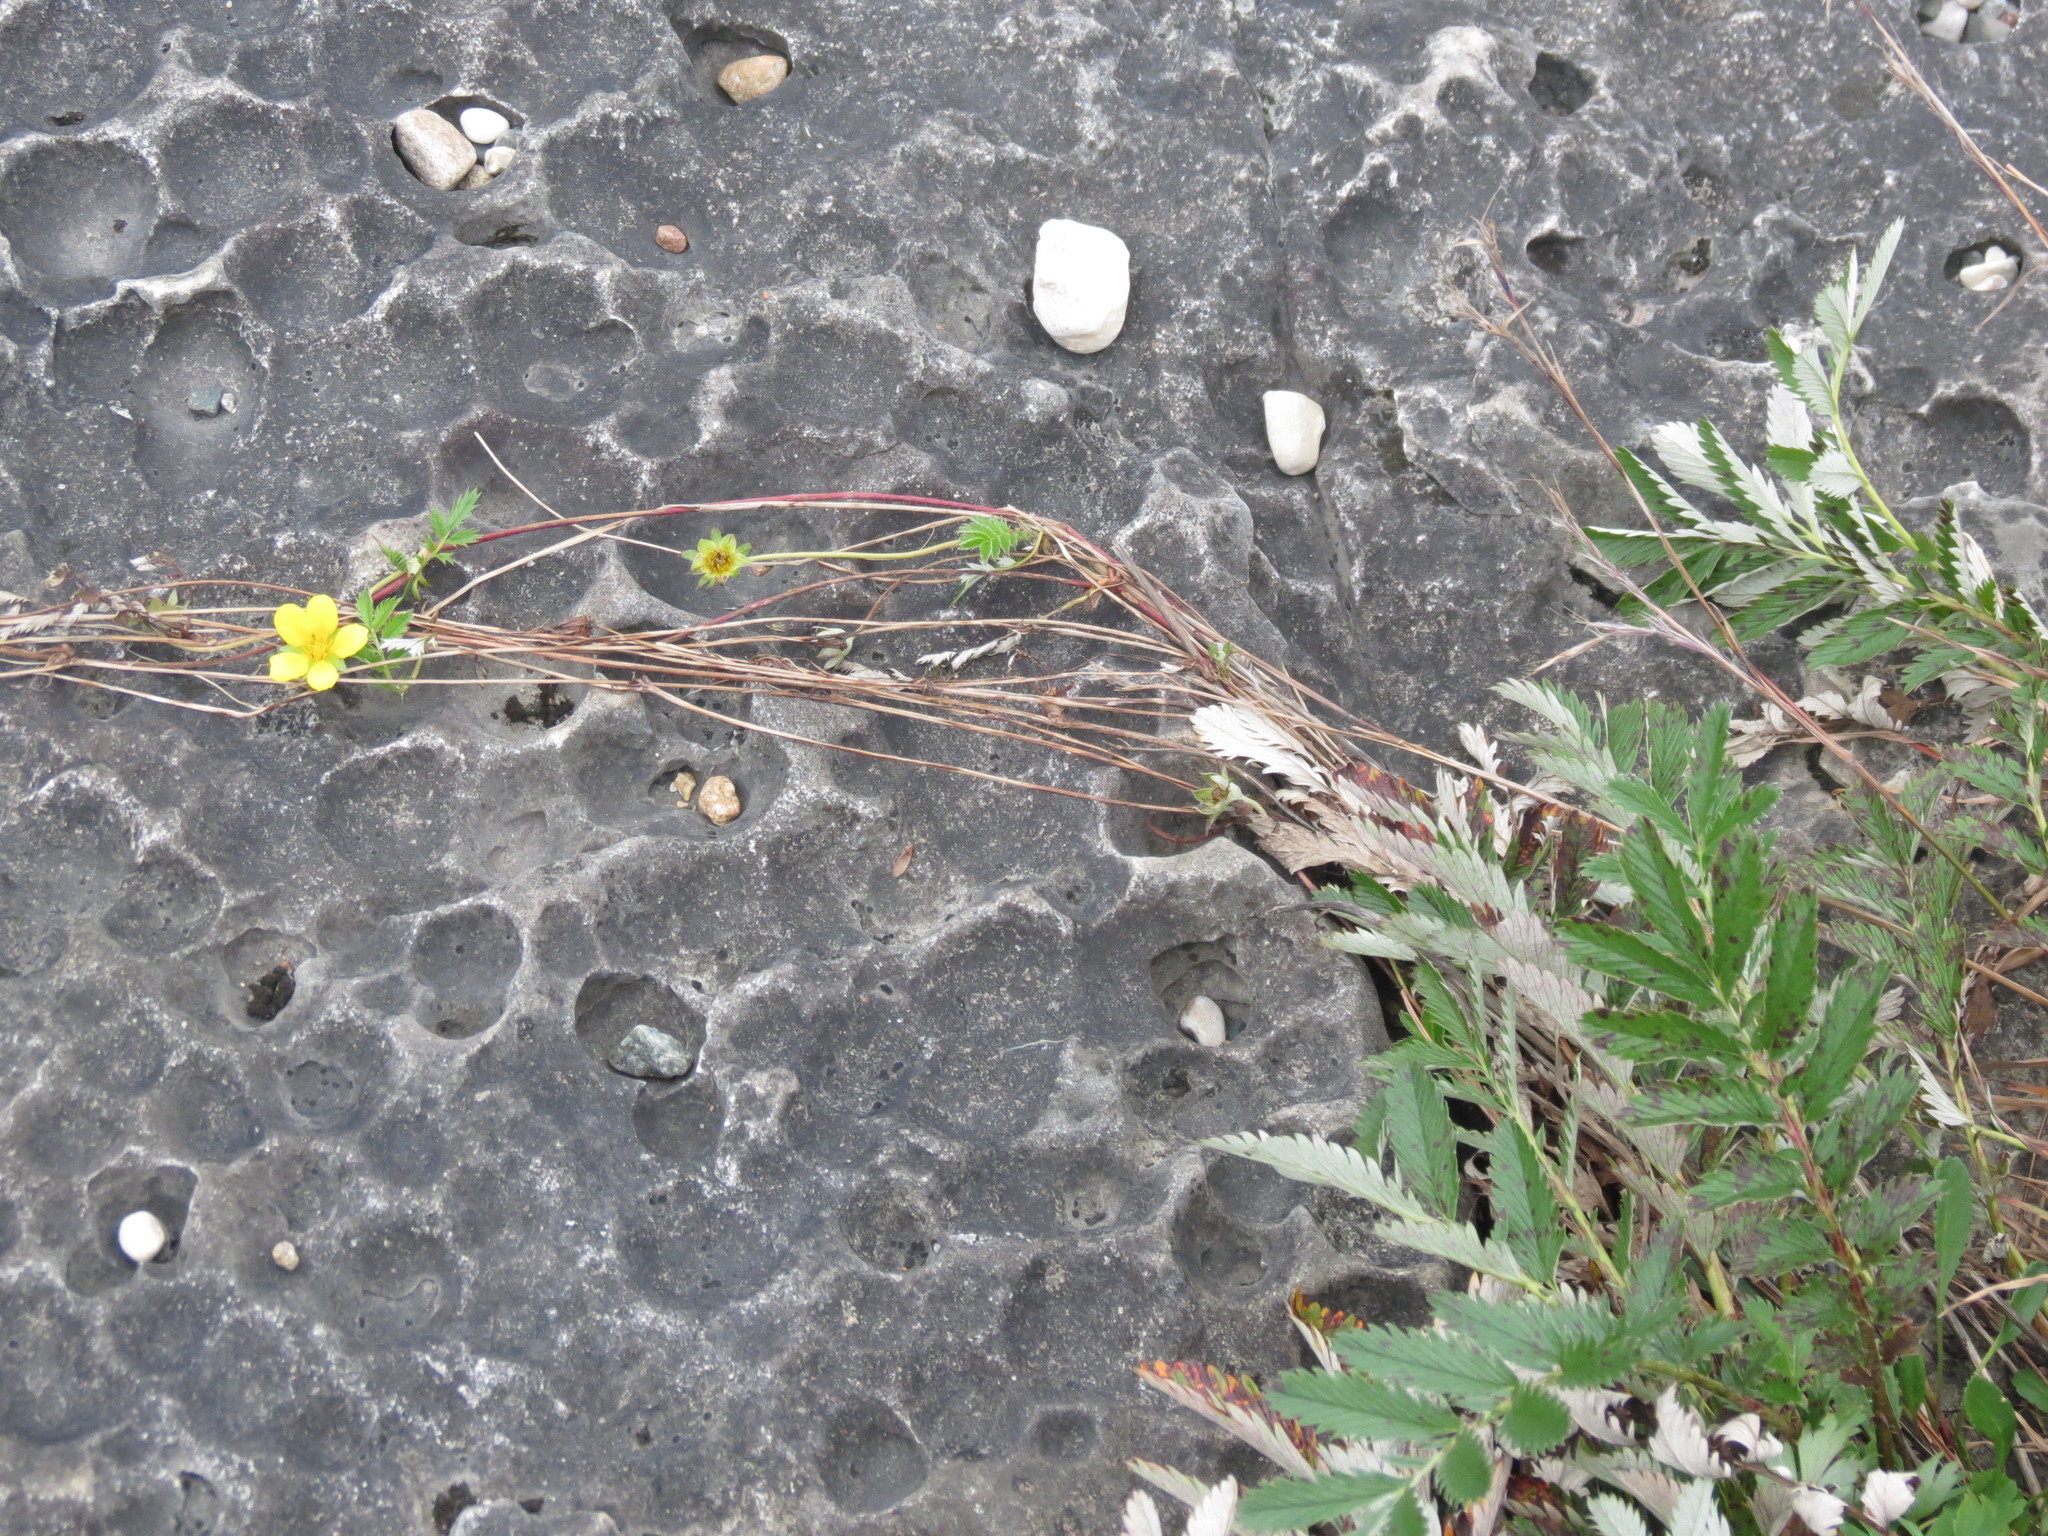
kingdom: Plantae
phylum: Tracheophyta
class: Magnoliopsida
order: Rosales
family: Rosaceae
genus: Argentina
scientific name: Argentina anserina
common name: Common silverweed
